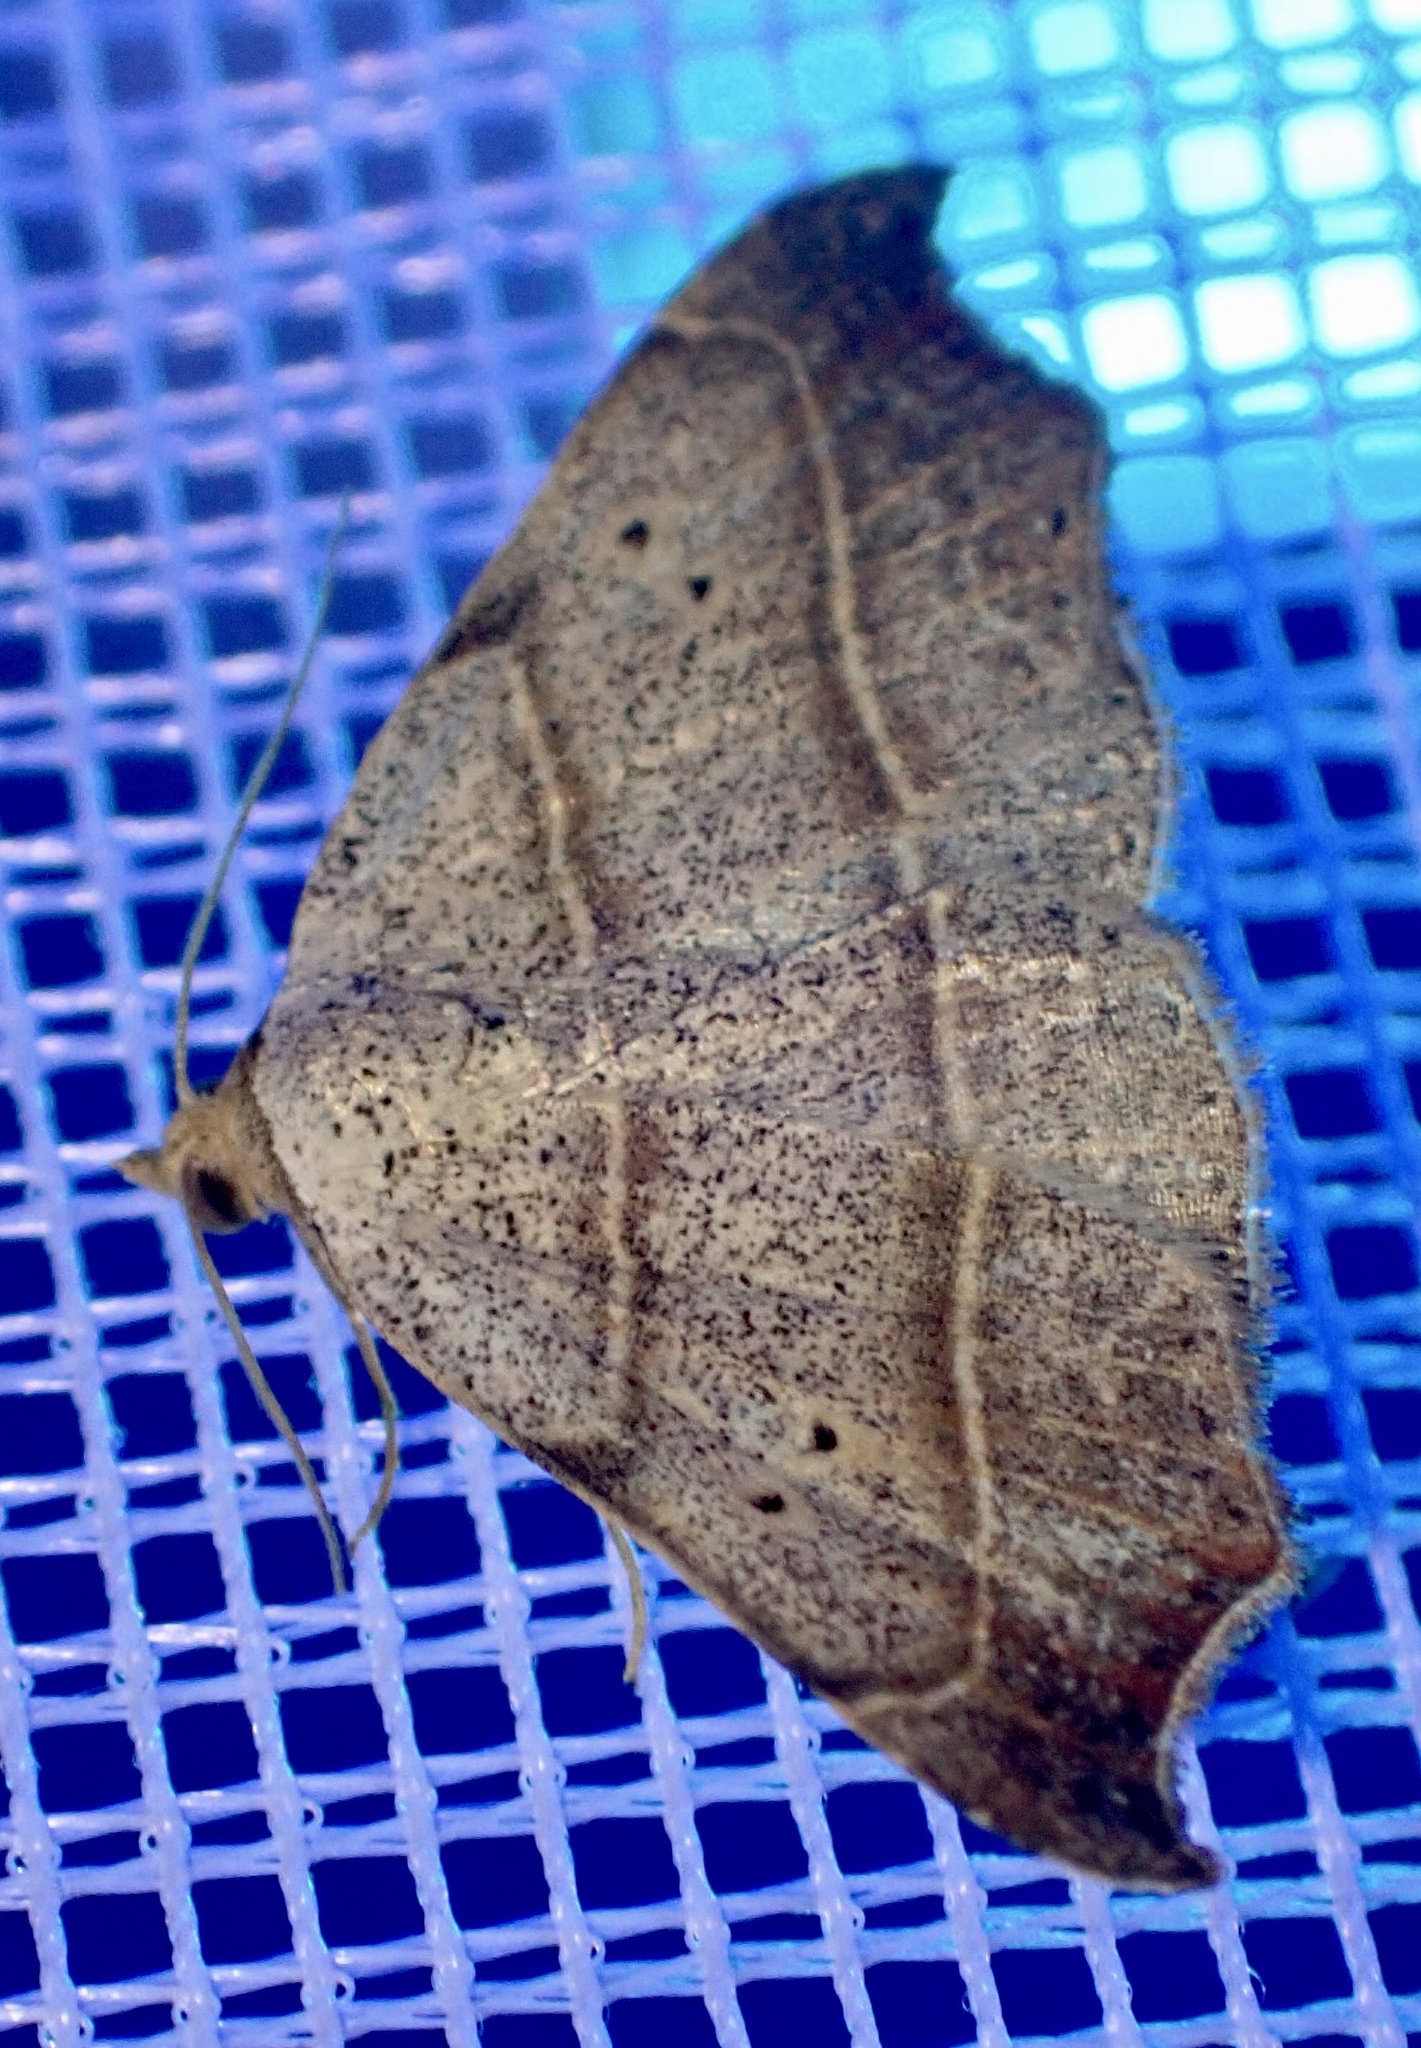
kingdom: Animalia
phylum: Arthropoda
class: Insecta
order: Lepidoptera
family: Erebidae
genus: Laspeyria
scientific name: Laspeyria flexula
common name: Beautiful hook-tip
